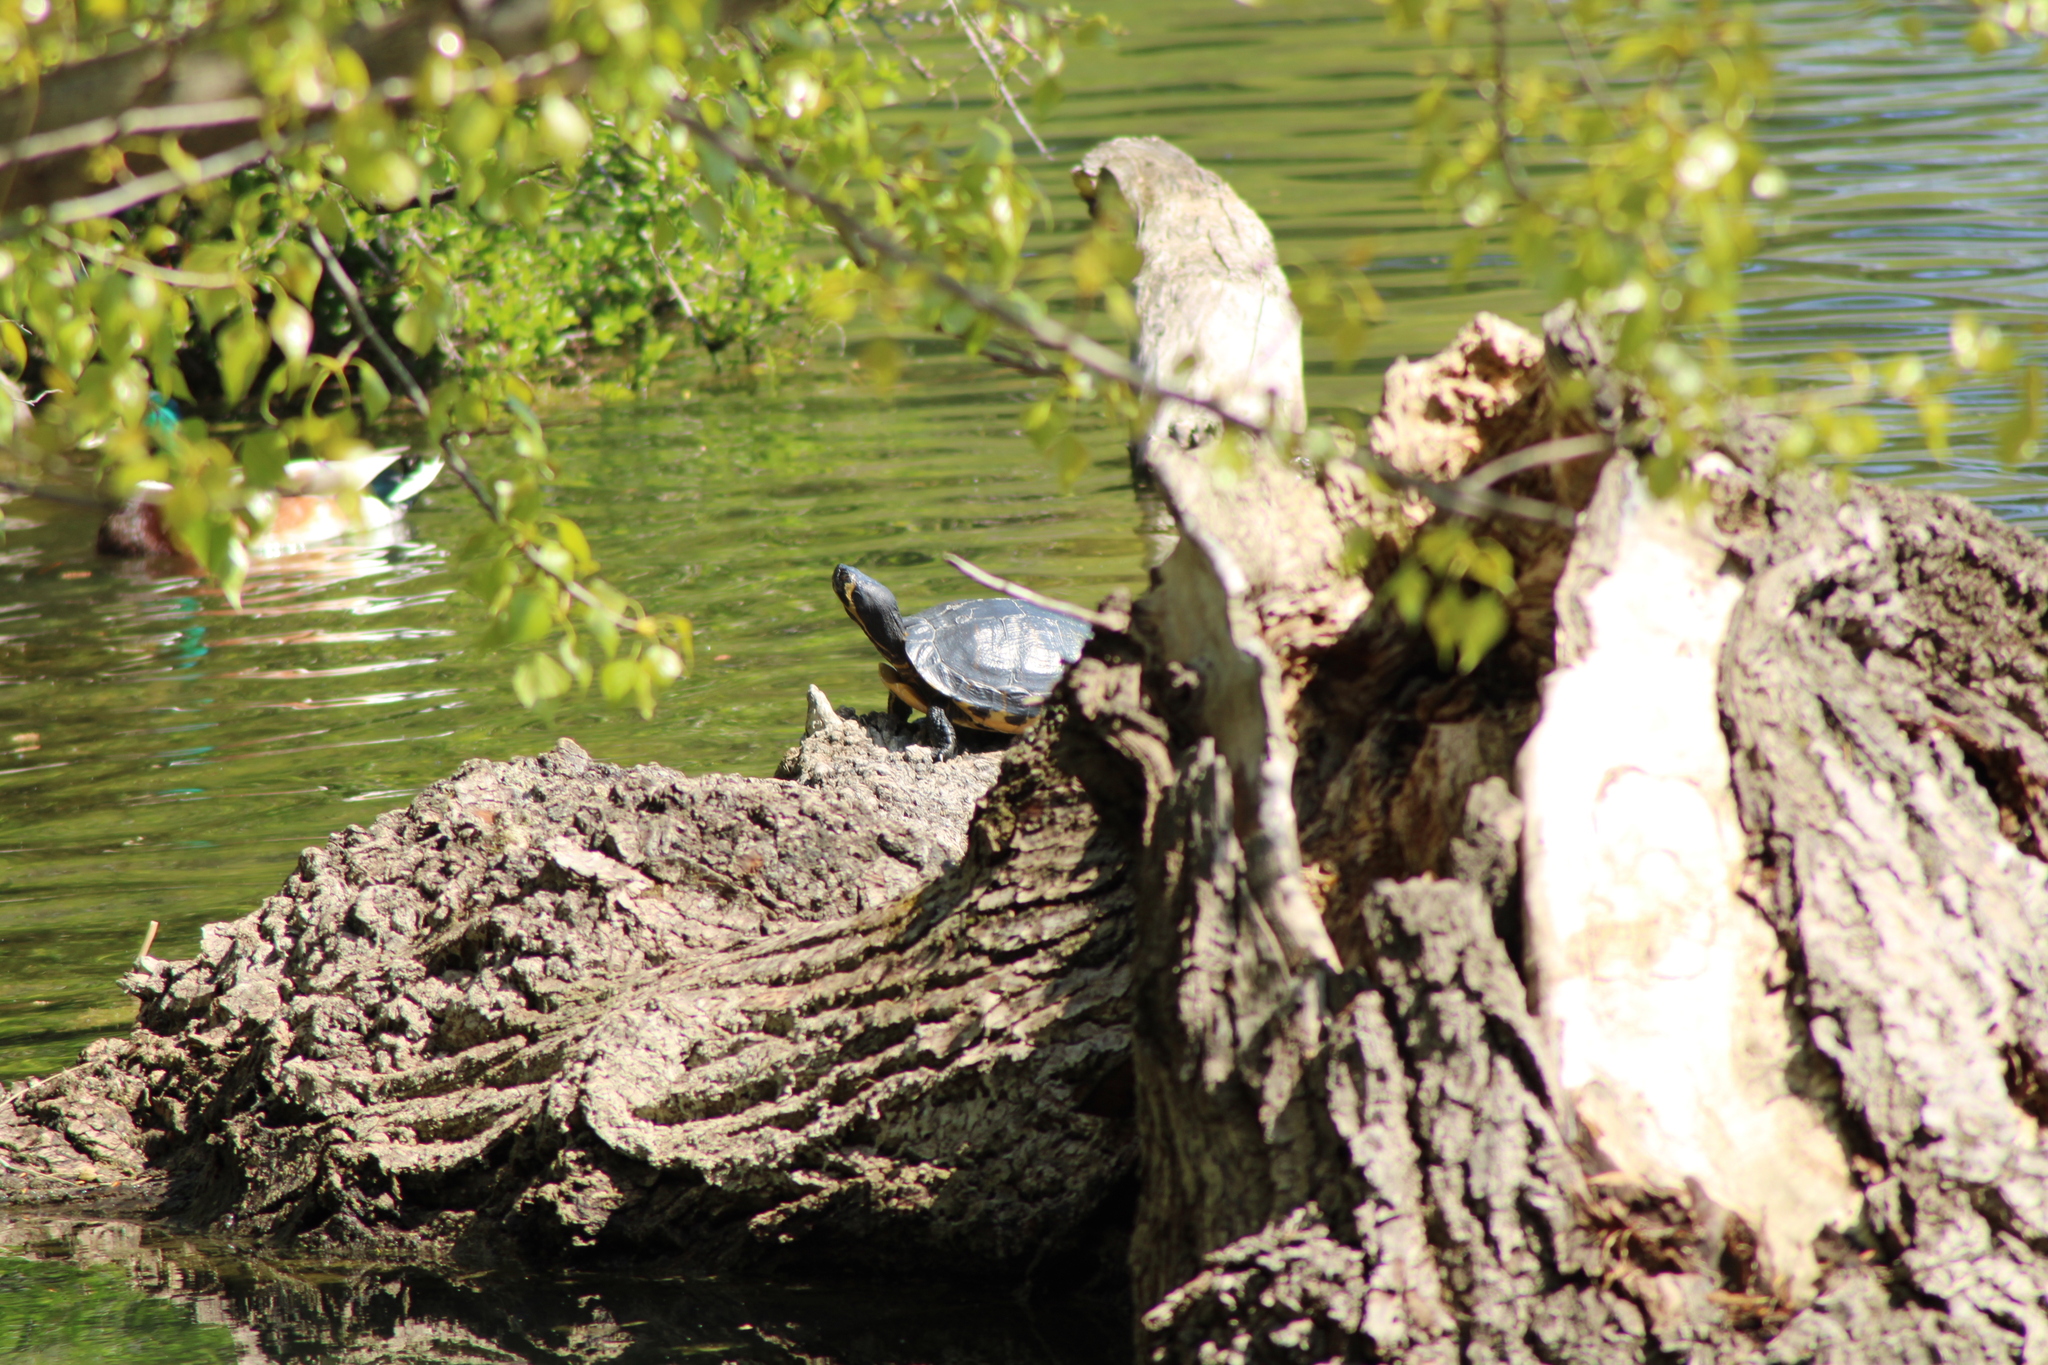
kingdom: Animalia
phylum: Chordata
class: Testudines
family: Emydidae
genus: Trachemys
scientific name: Trachemys scripta
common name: Slider
